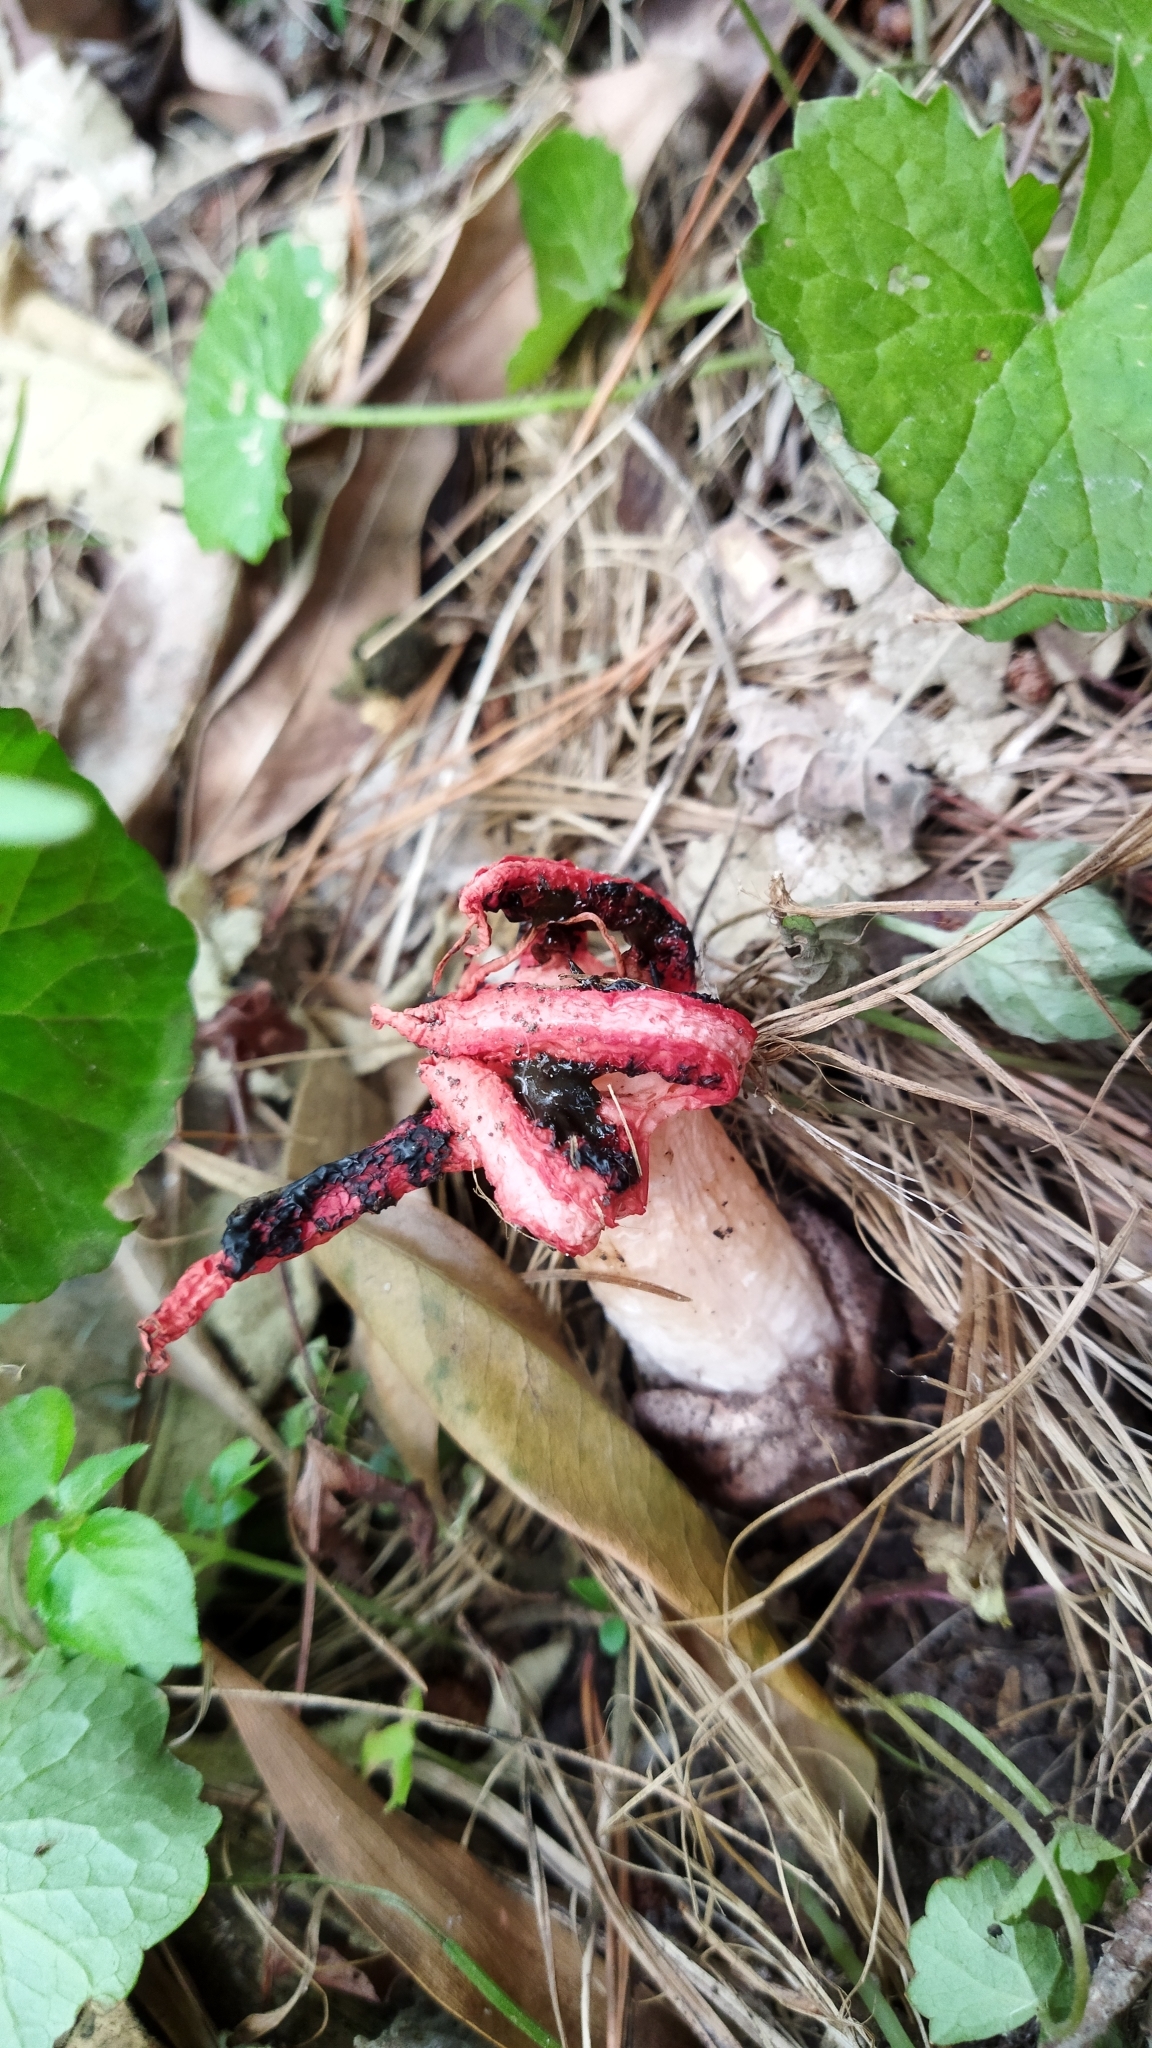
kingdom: Fungi
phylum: Basidiomycota
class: Agaricomycetes
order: Phallales
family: Phallaceae
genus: Clathrus
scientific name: Clathrus archeri
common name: Devil's fingers
